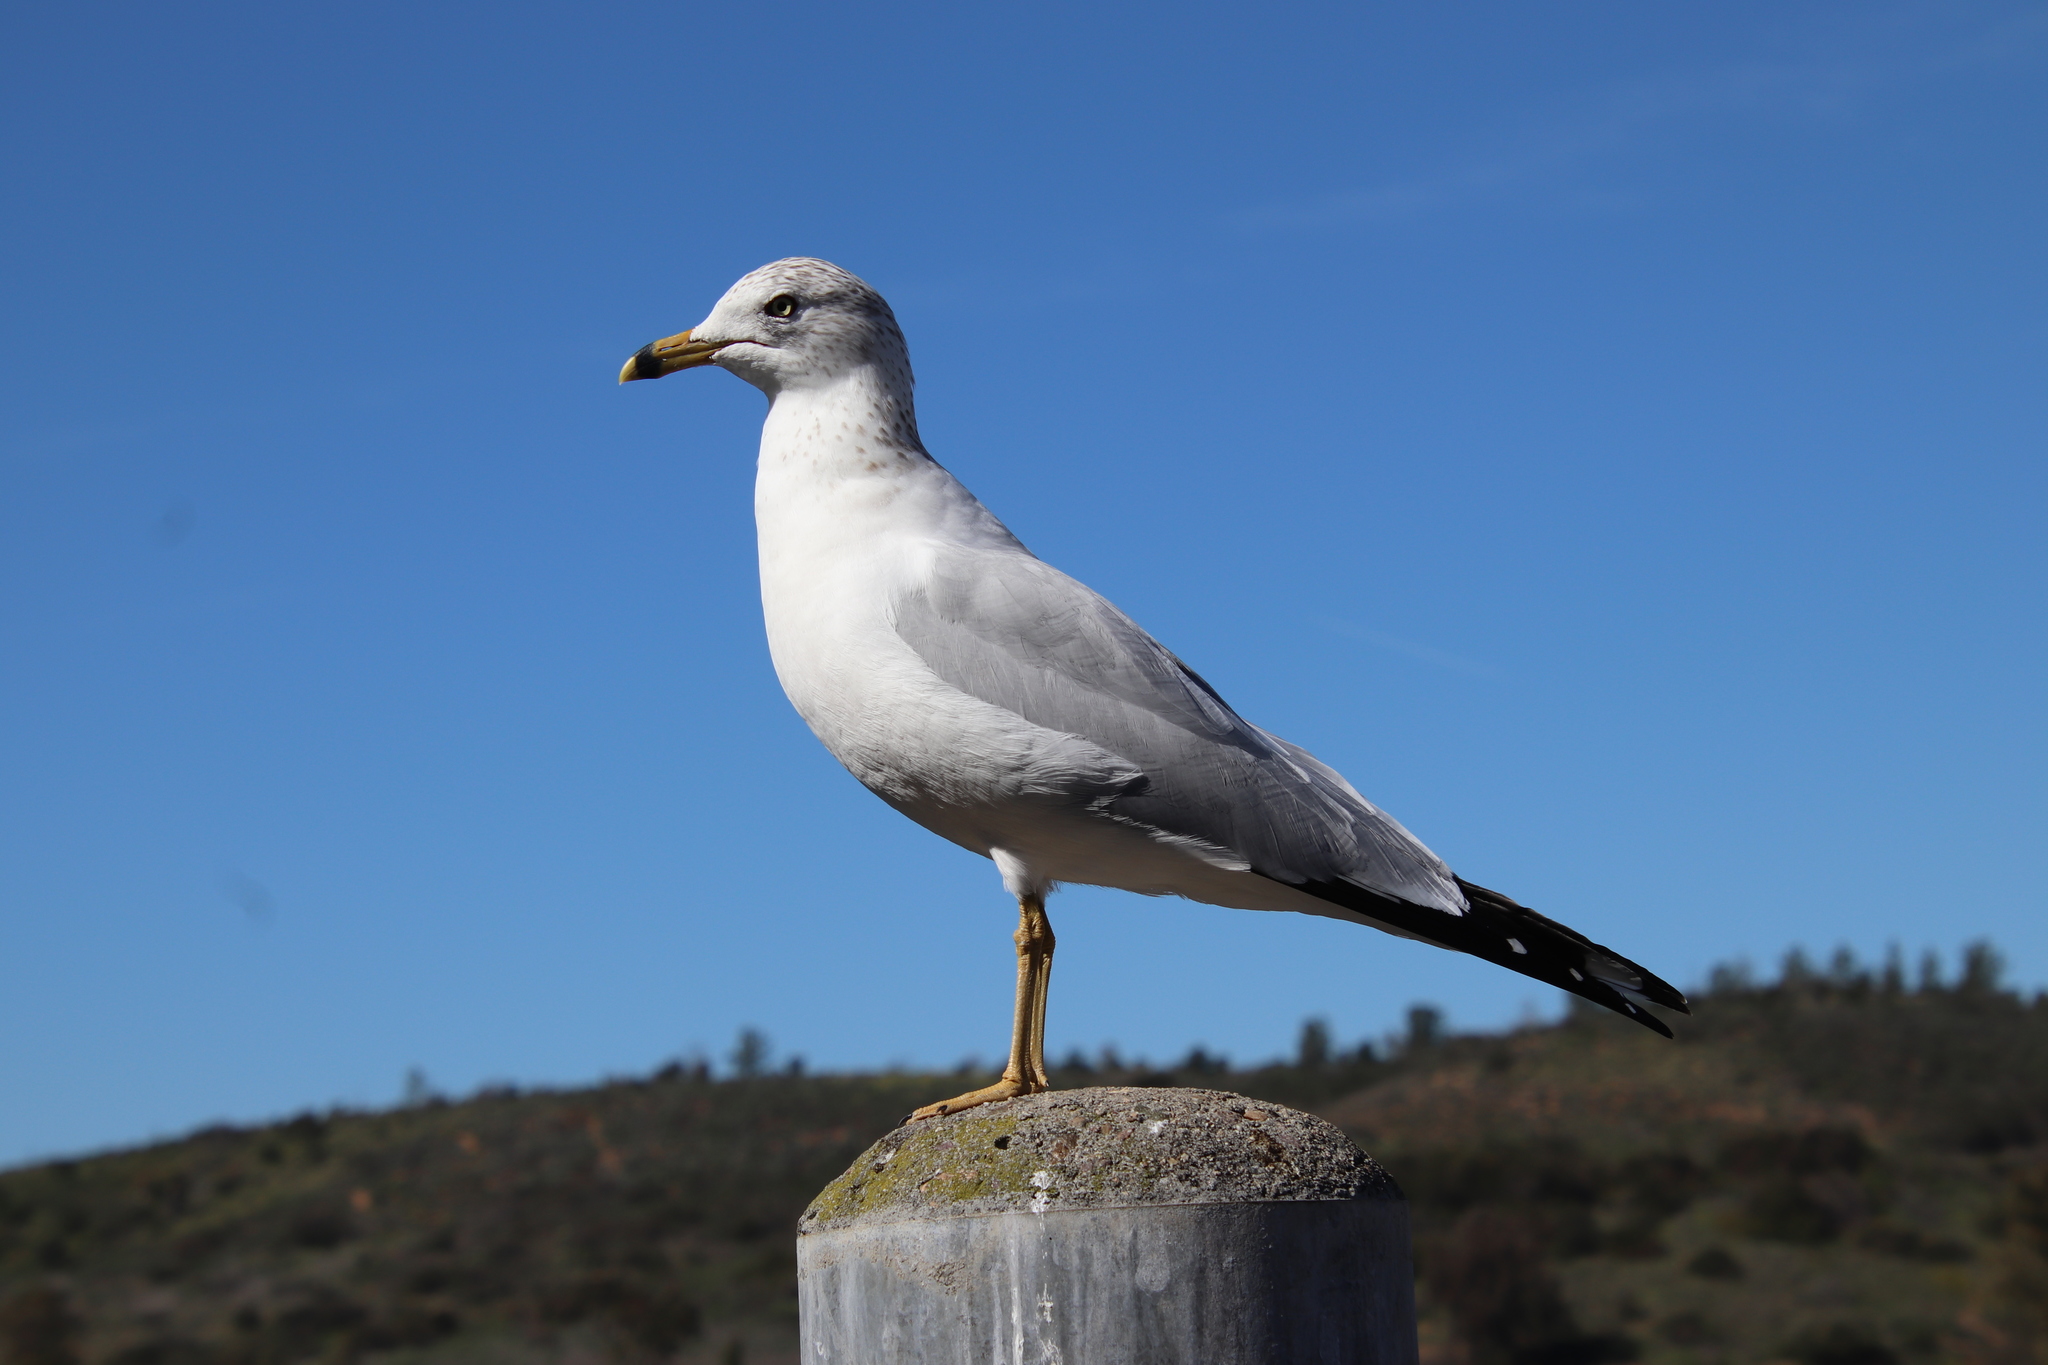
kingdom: Animalia
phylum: Chordata
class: Aves
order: Charadriiformes
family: Laridae
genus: Larus
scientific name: Larus delawarensis
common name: Ring-billed gull
